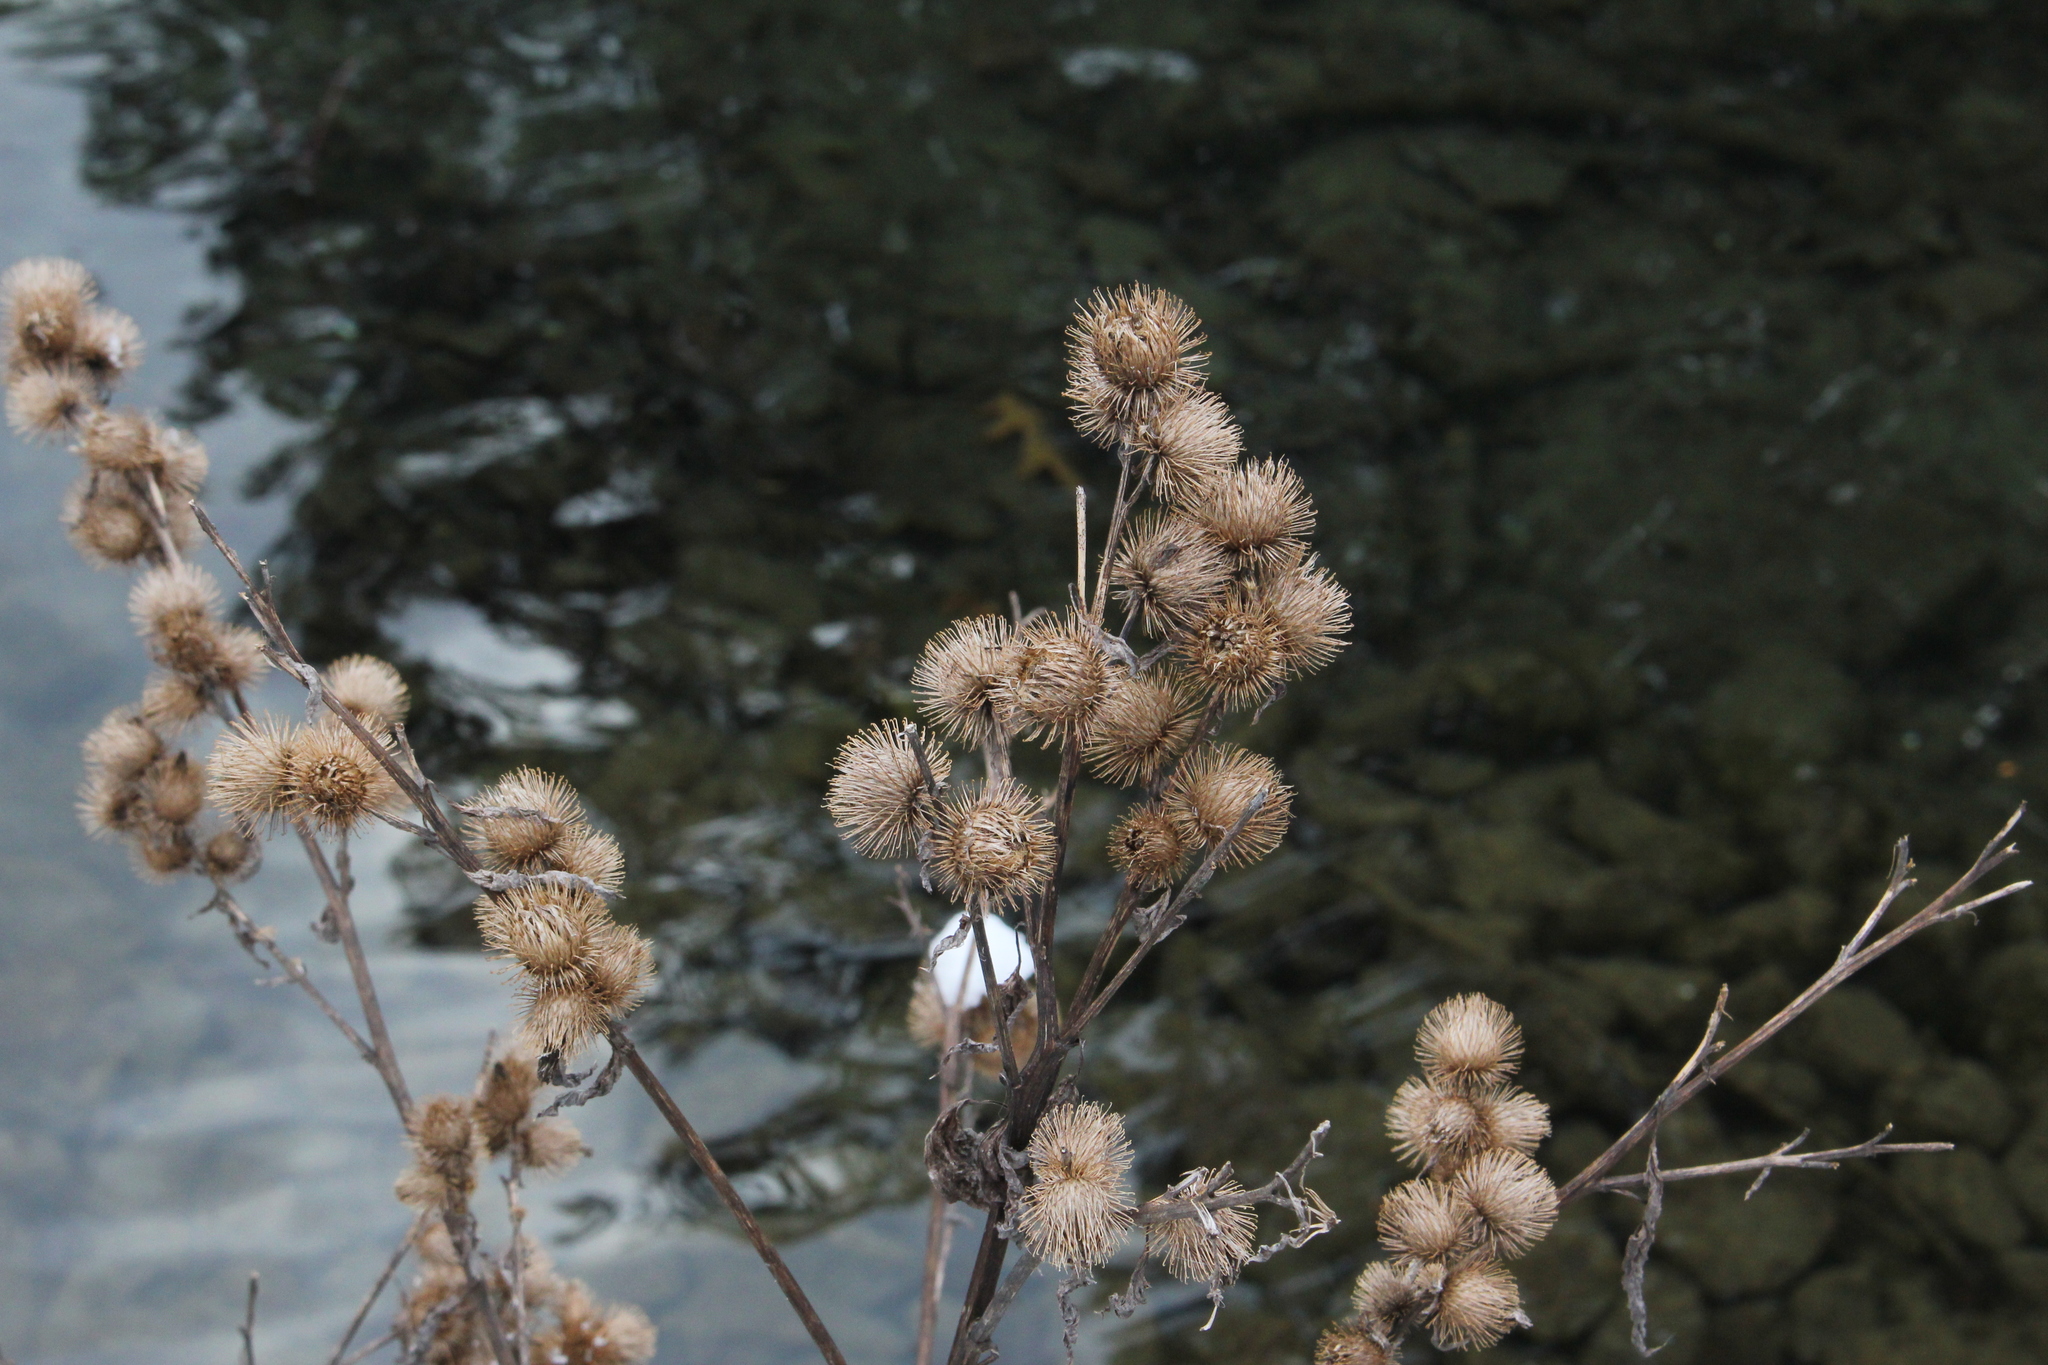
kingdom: Plantae
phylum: Tracheophyta
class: Magnoliopsida
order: Asterales
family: Asteraceae
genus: Arctium
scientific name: Arctium minus
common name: Lesser burdock
